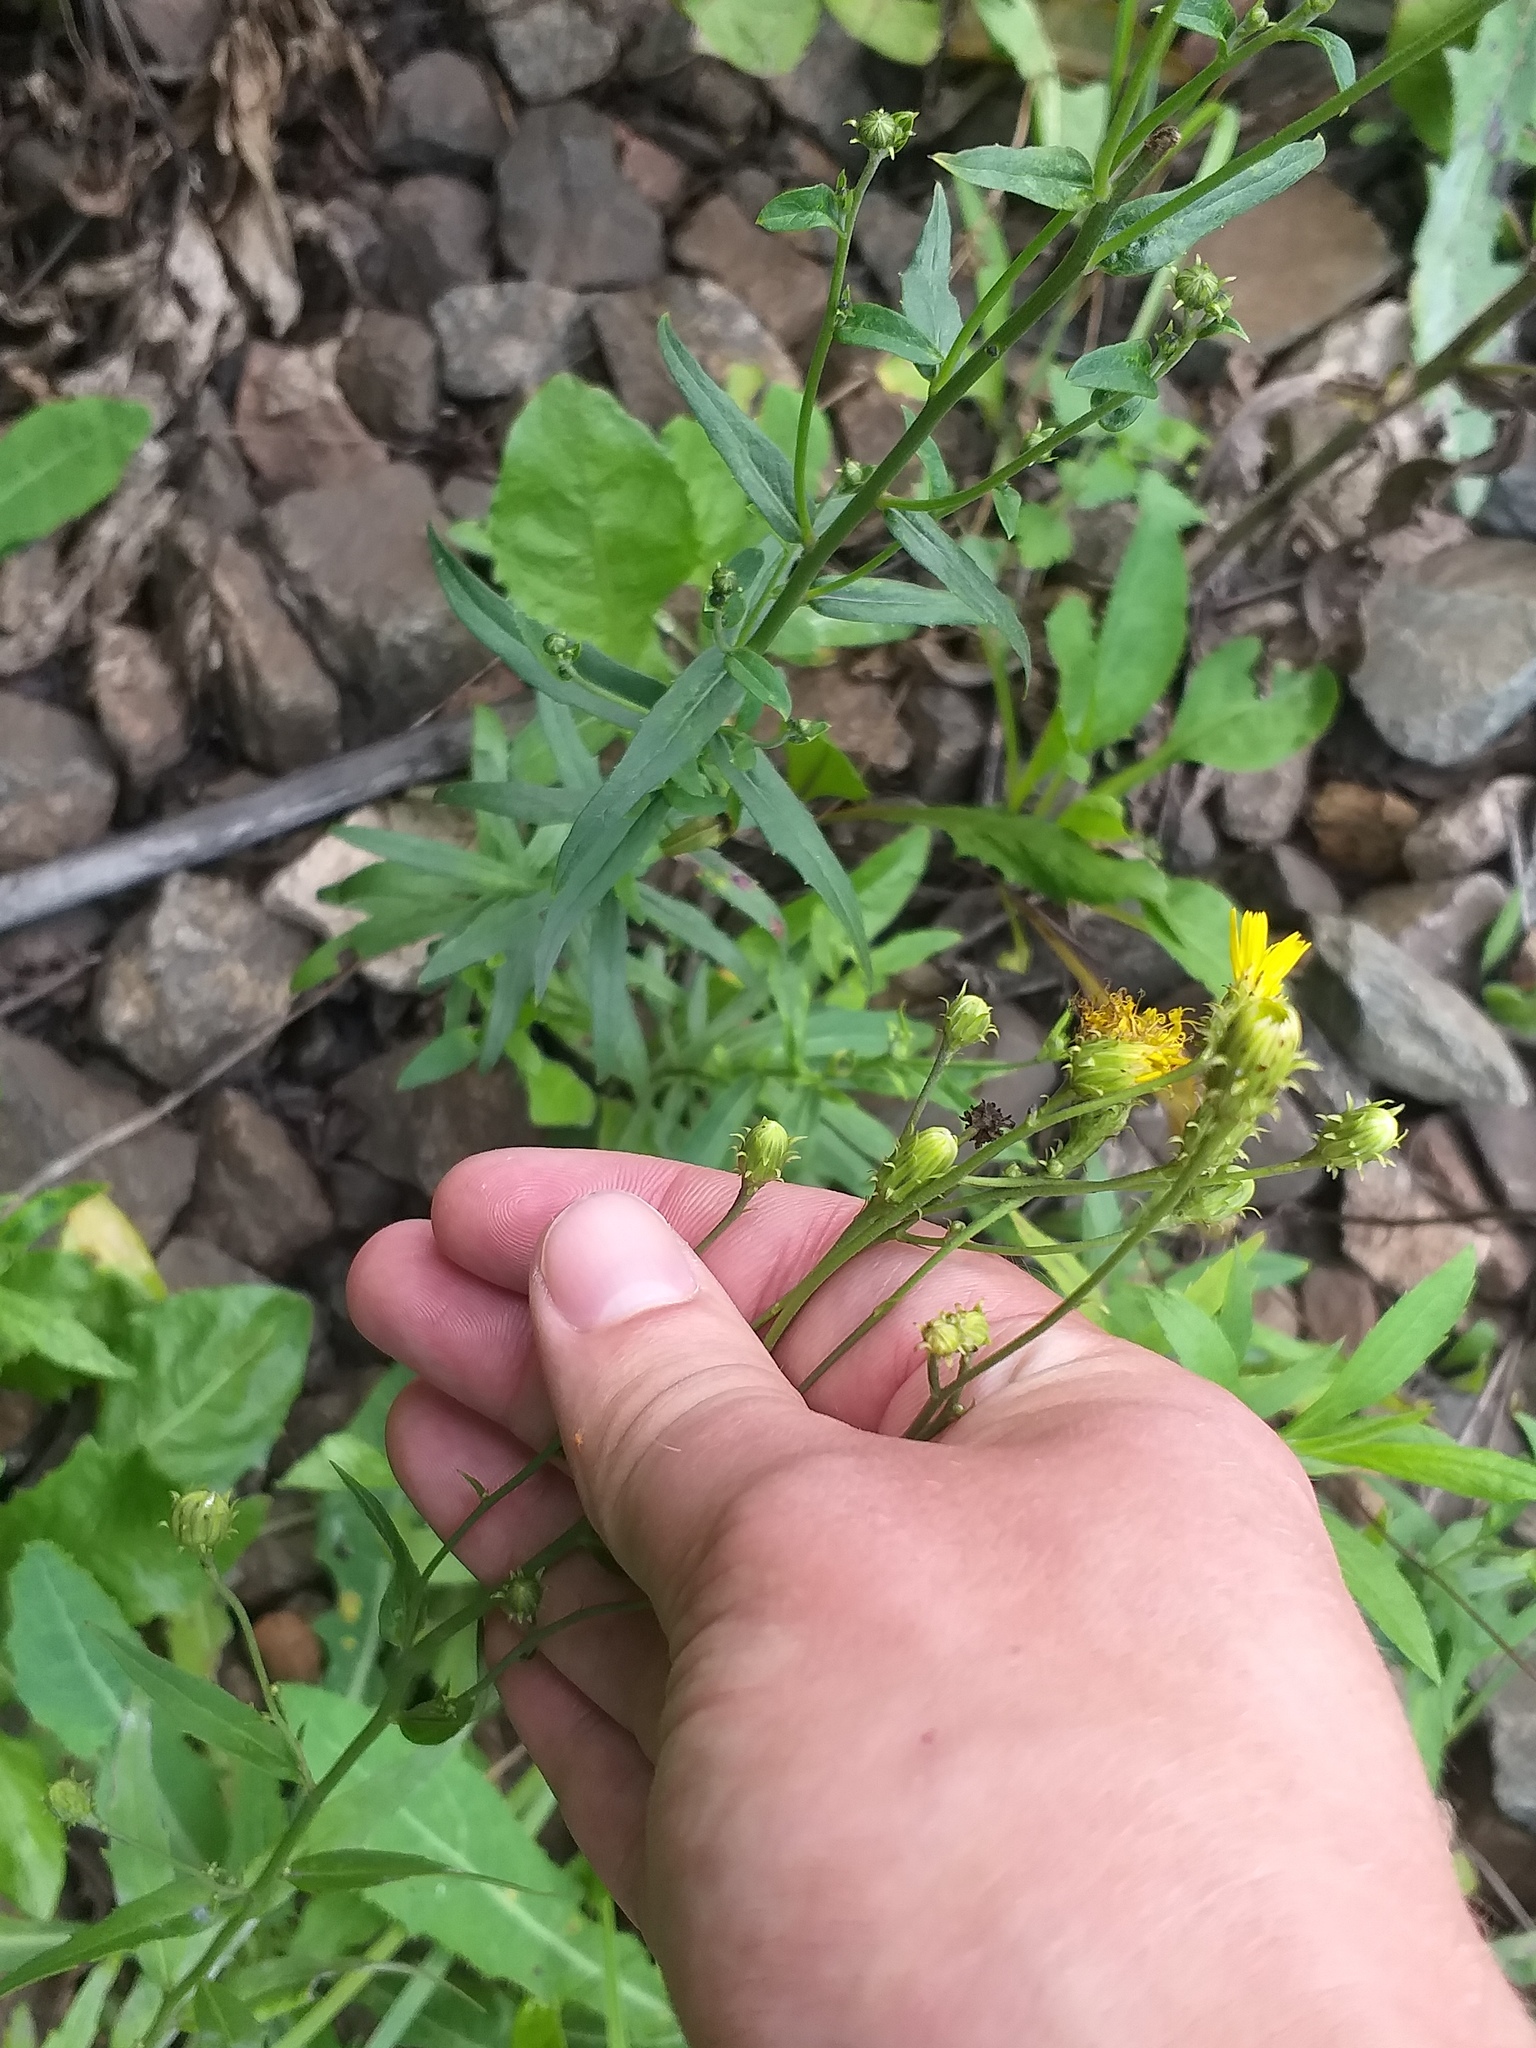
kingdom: Plantae
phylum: Tracheophyta
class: Magnoliopsida
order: Asterales
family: Asteraceae
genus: Hieracium
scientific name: Hieracium umbellatum
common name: Northern hawkweed
